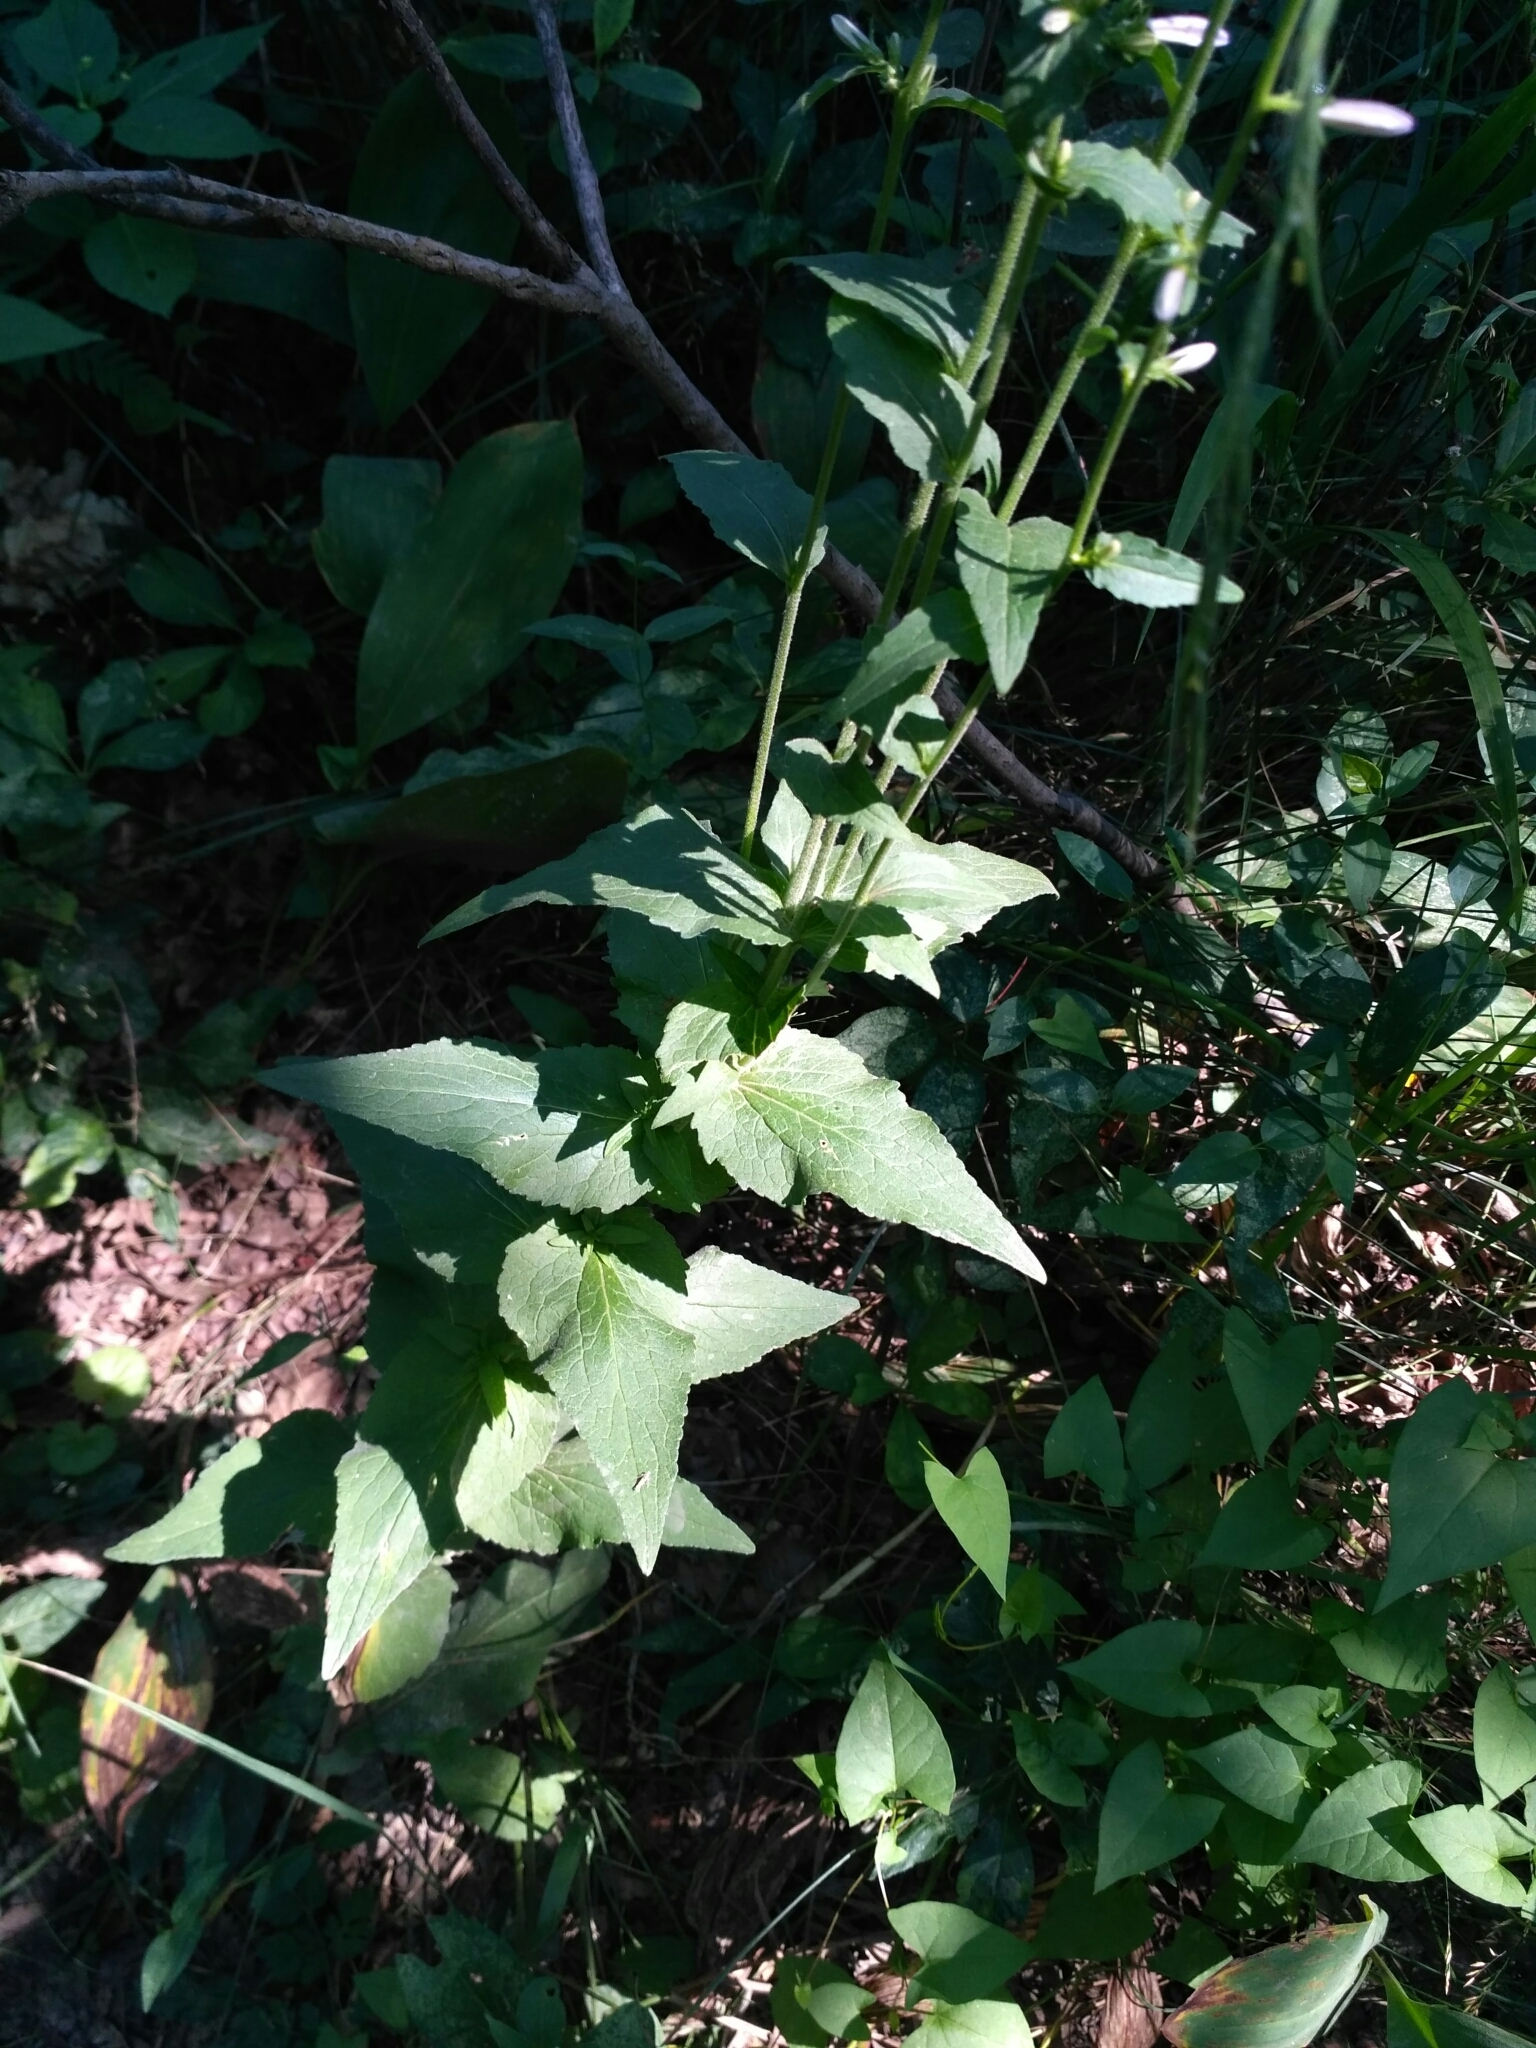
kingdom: Plantae
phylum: Tracheophyta
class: Magnoliopsida
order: Asterales
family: Campanulaceae
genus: Campanula
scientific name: Campanula rapunculoides
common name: Creeping bellflower
